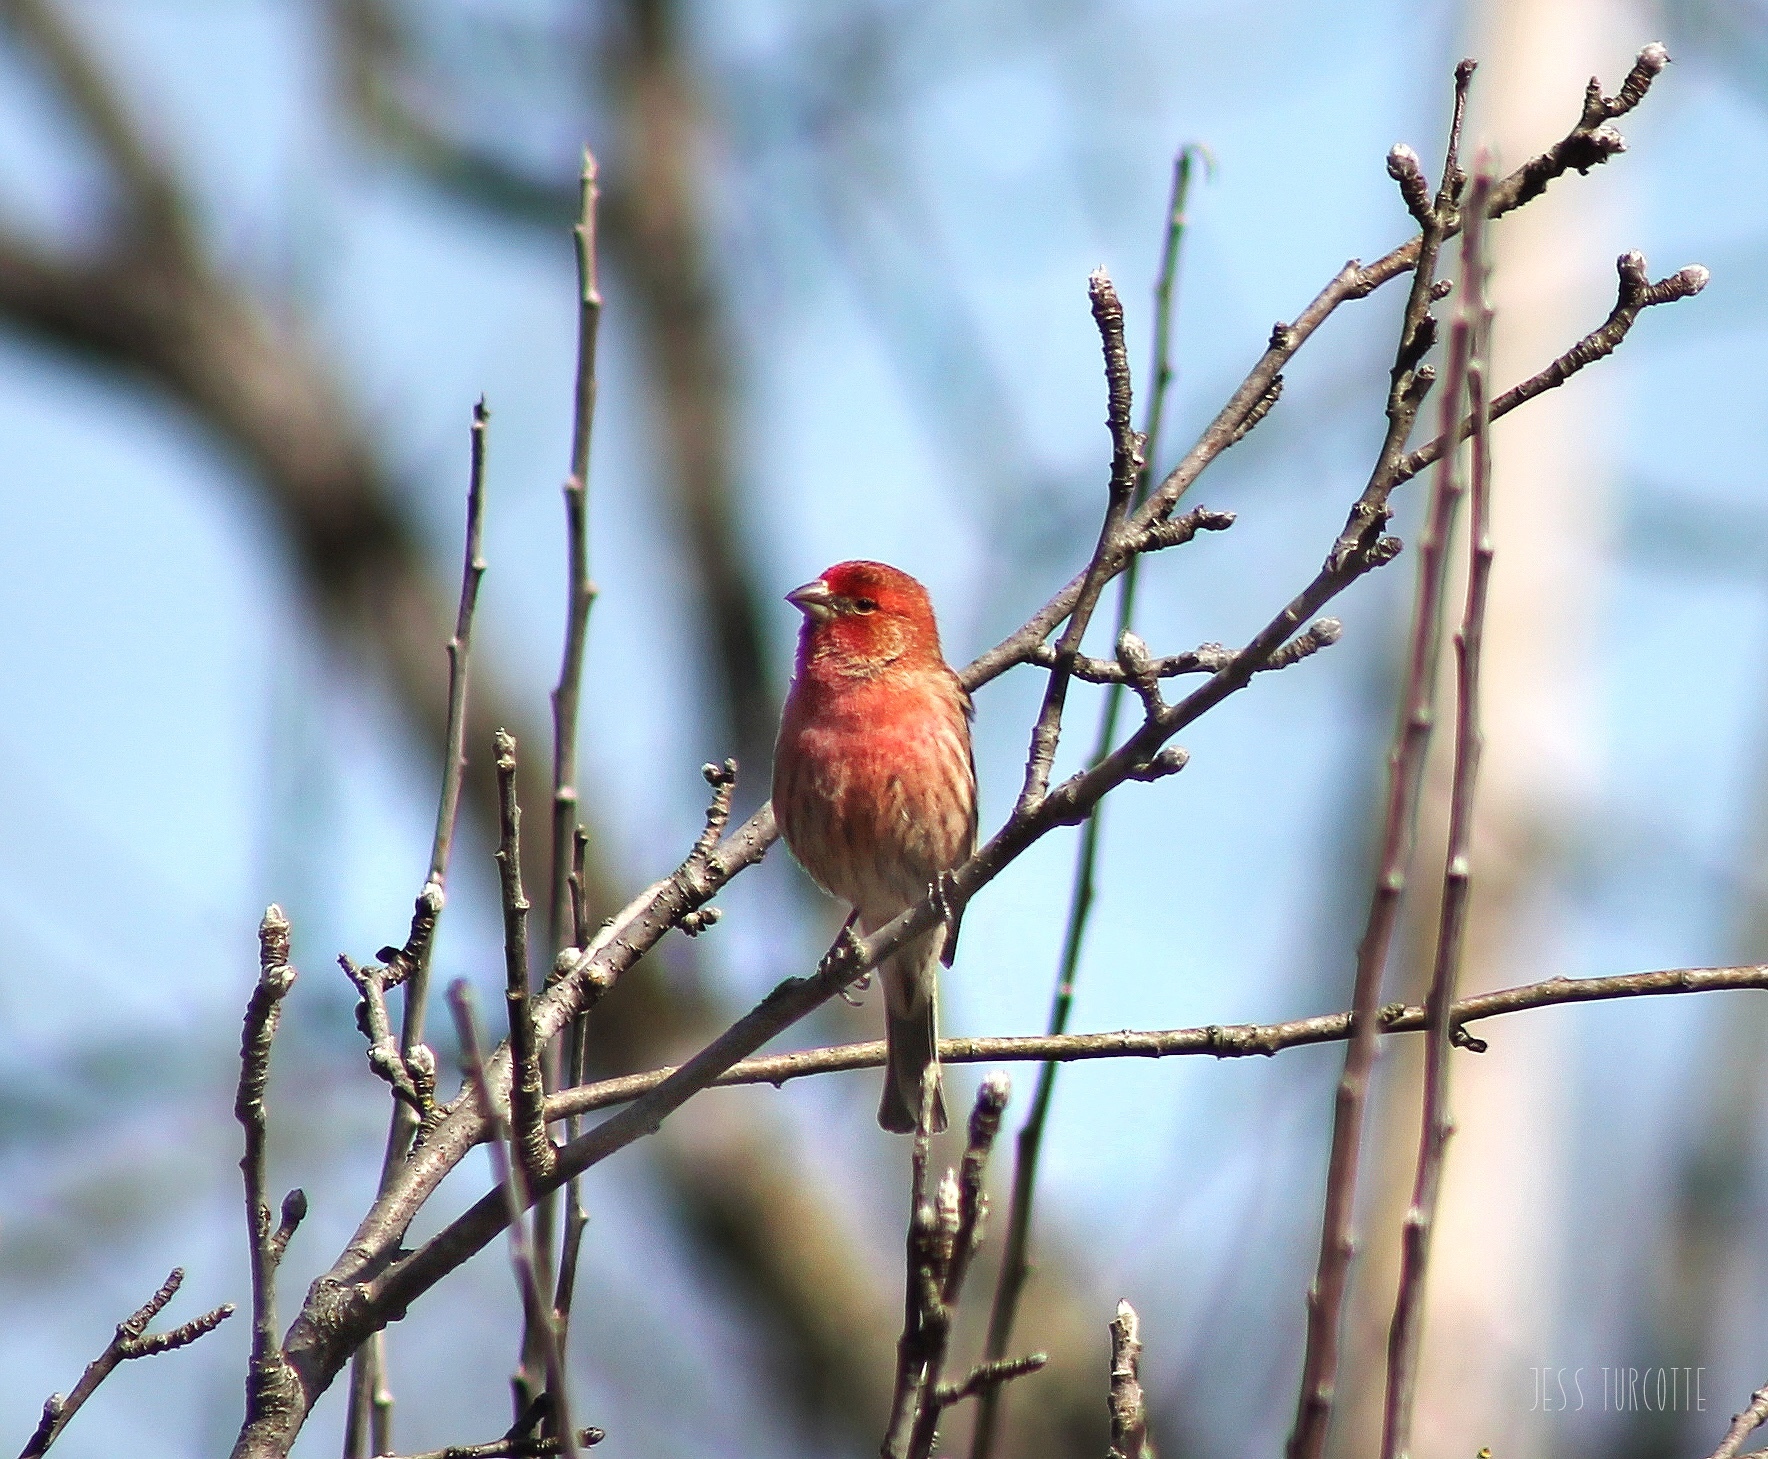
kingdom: Animalia
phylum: Chordata
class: Aves
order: Passeriformes
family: Fringillidae
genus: Haemorhous
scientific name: Haemorhous mexicanus
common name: House finch
